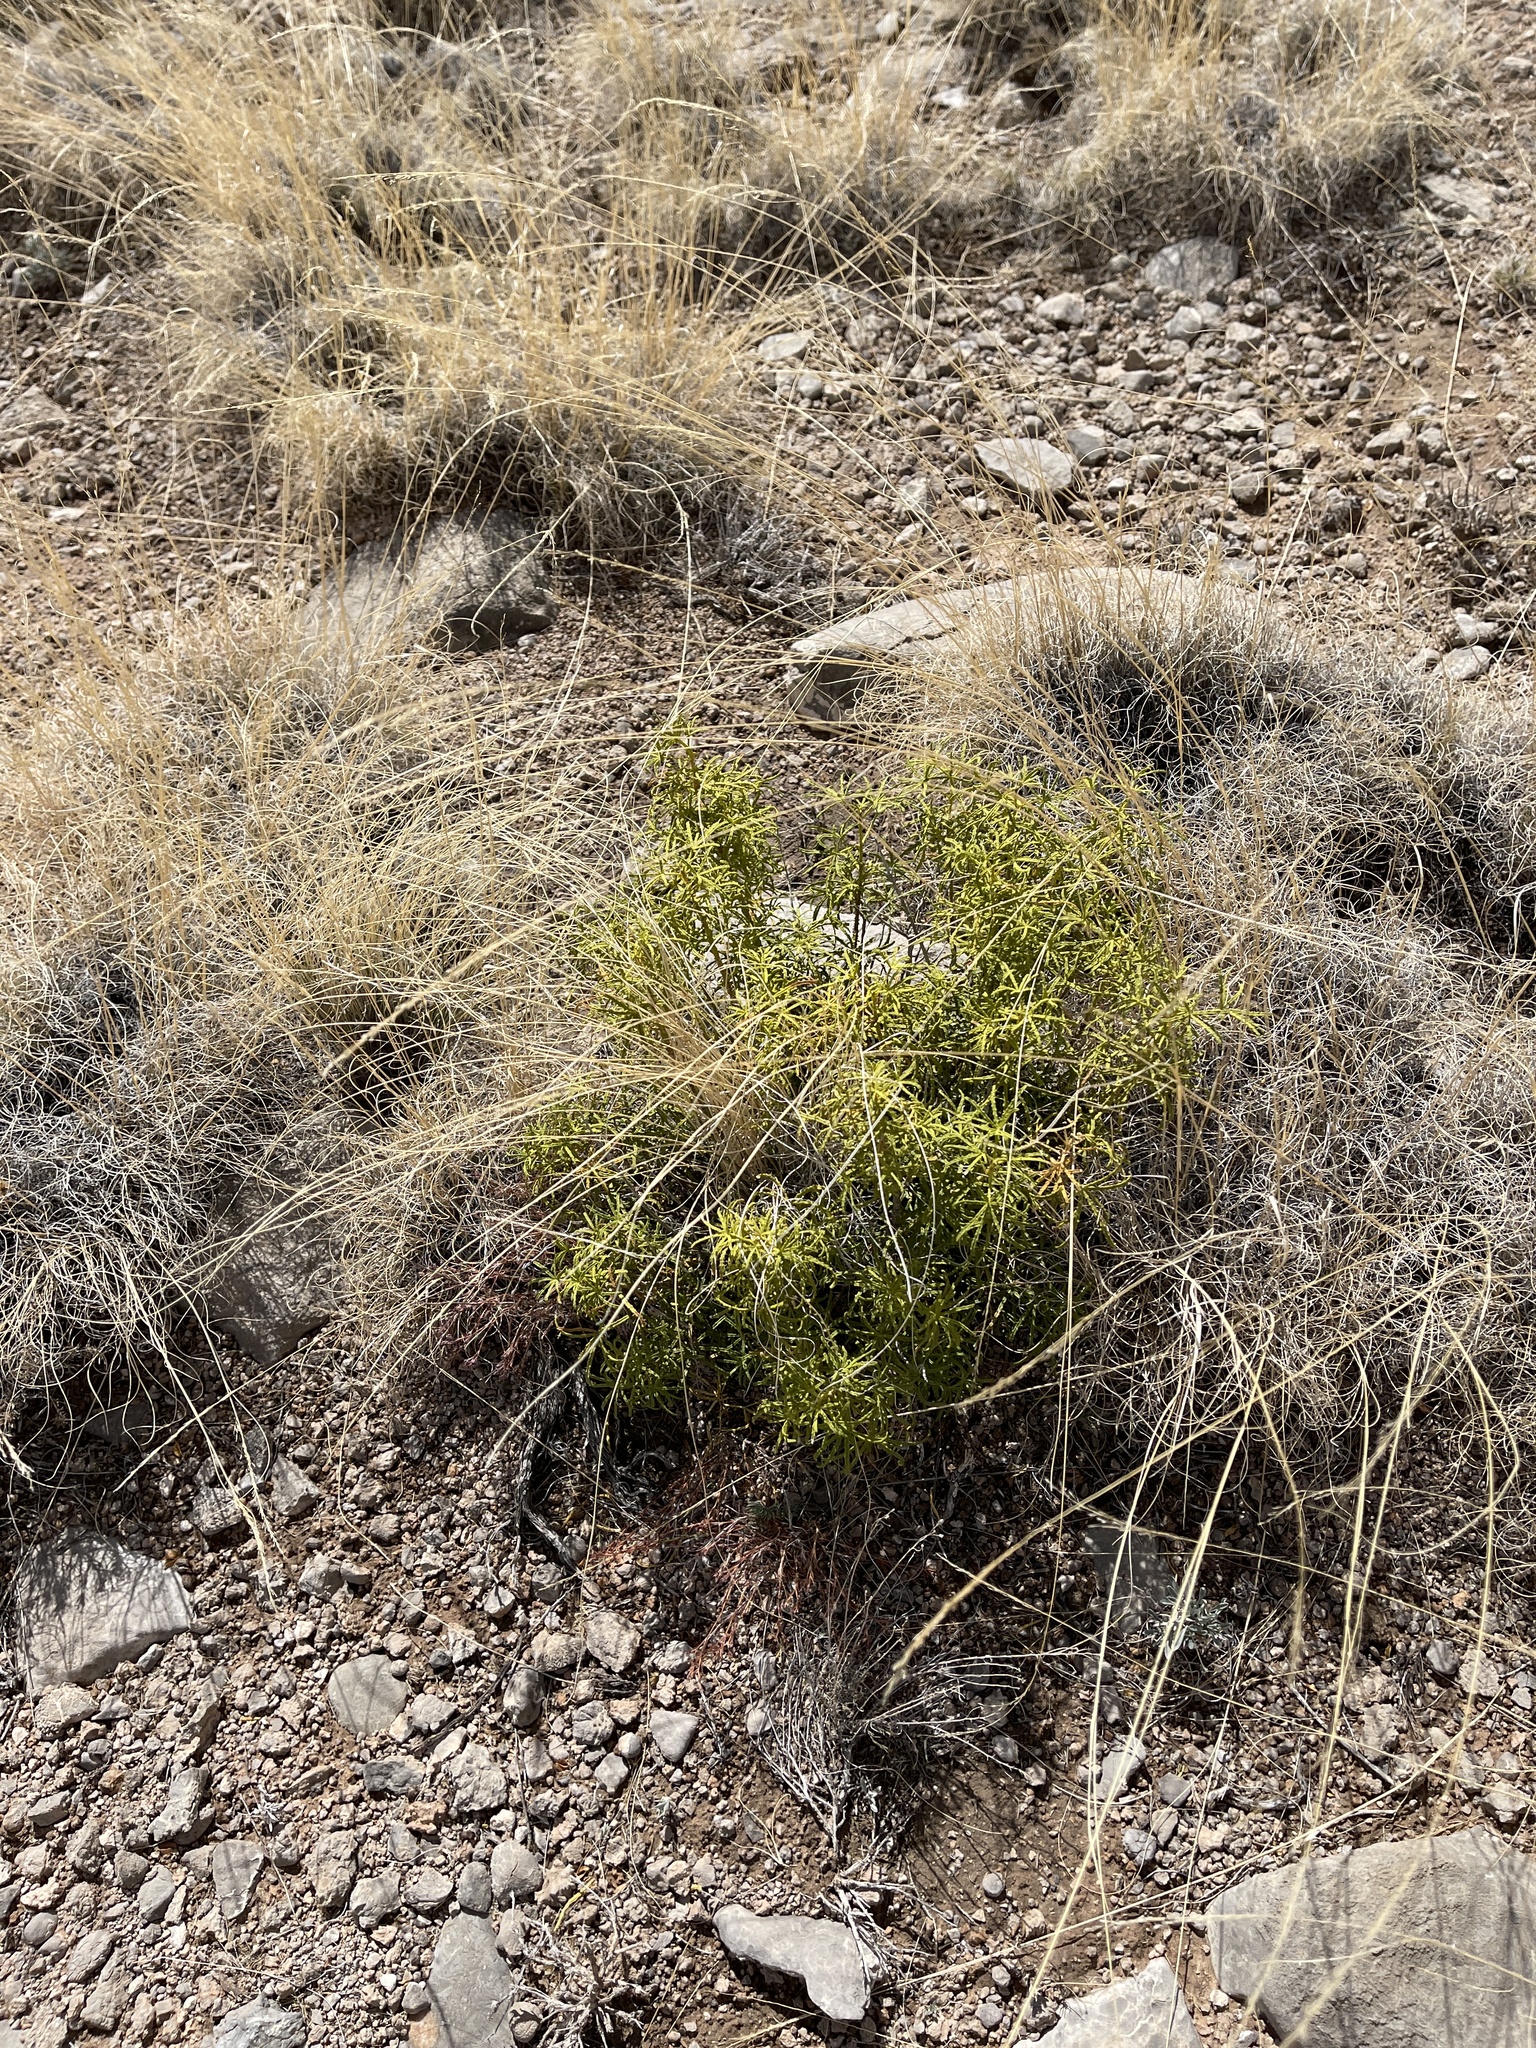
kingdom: Plantae
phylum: Tracheophyta
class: Magnoliopsida
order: Sapindales
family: Rutaceae
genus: Choisya
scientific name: Choisya dumosa
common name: Mexican-orange
